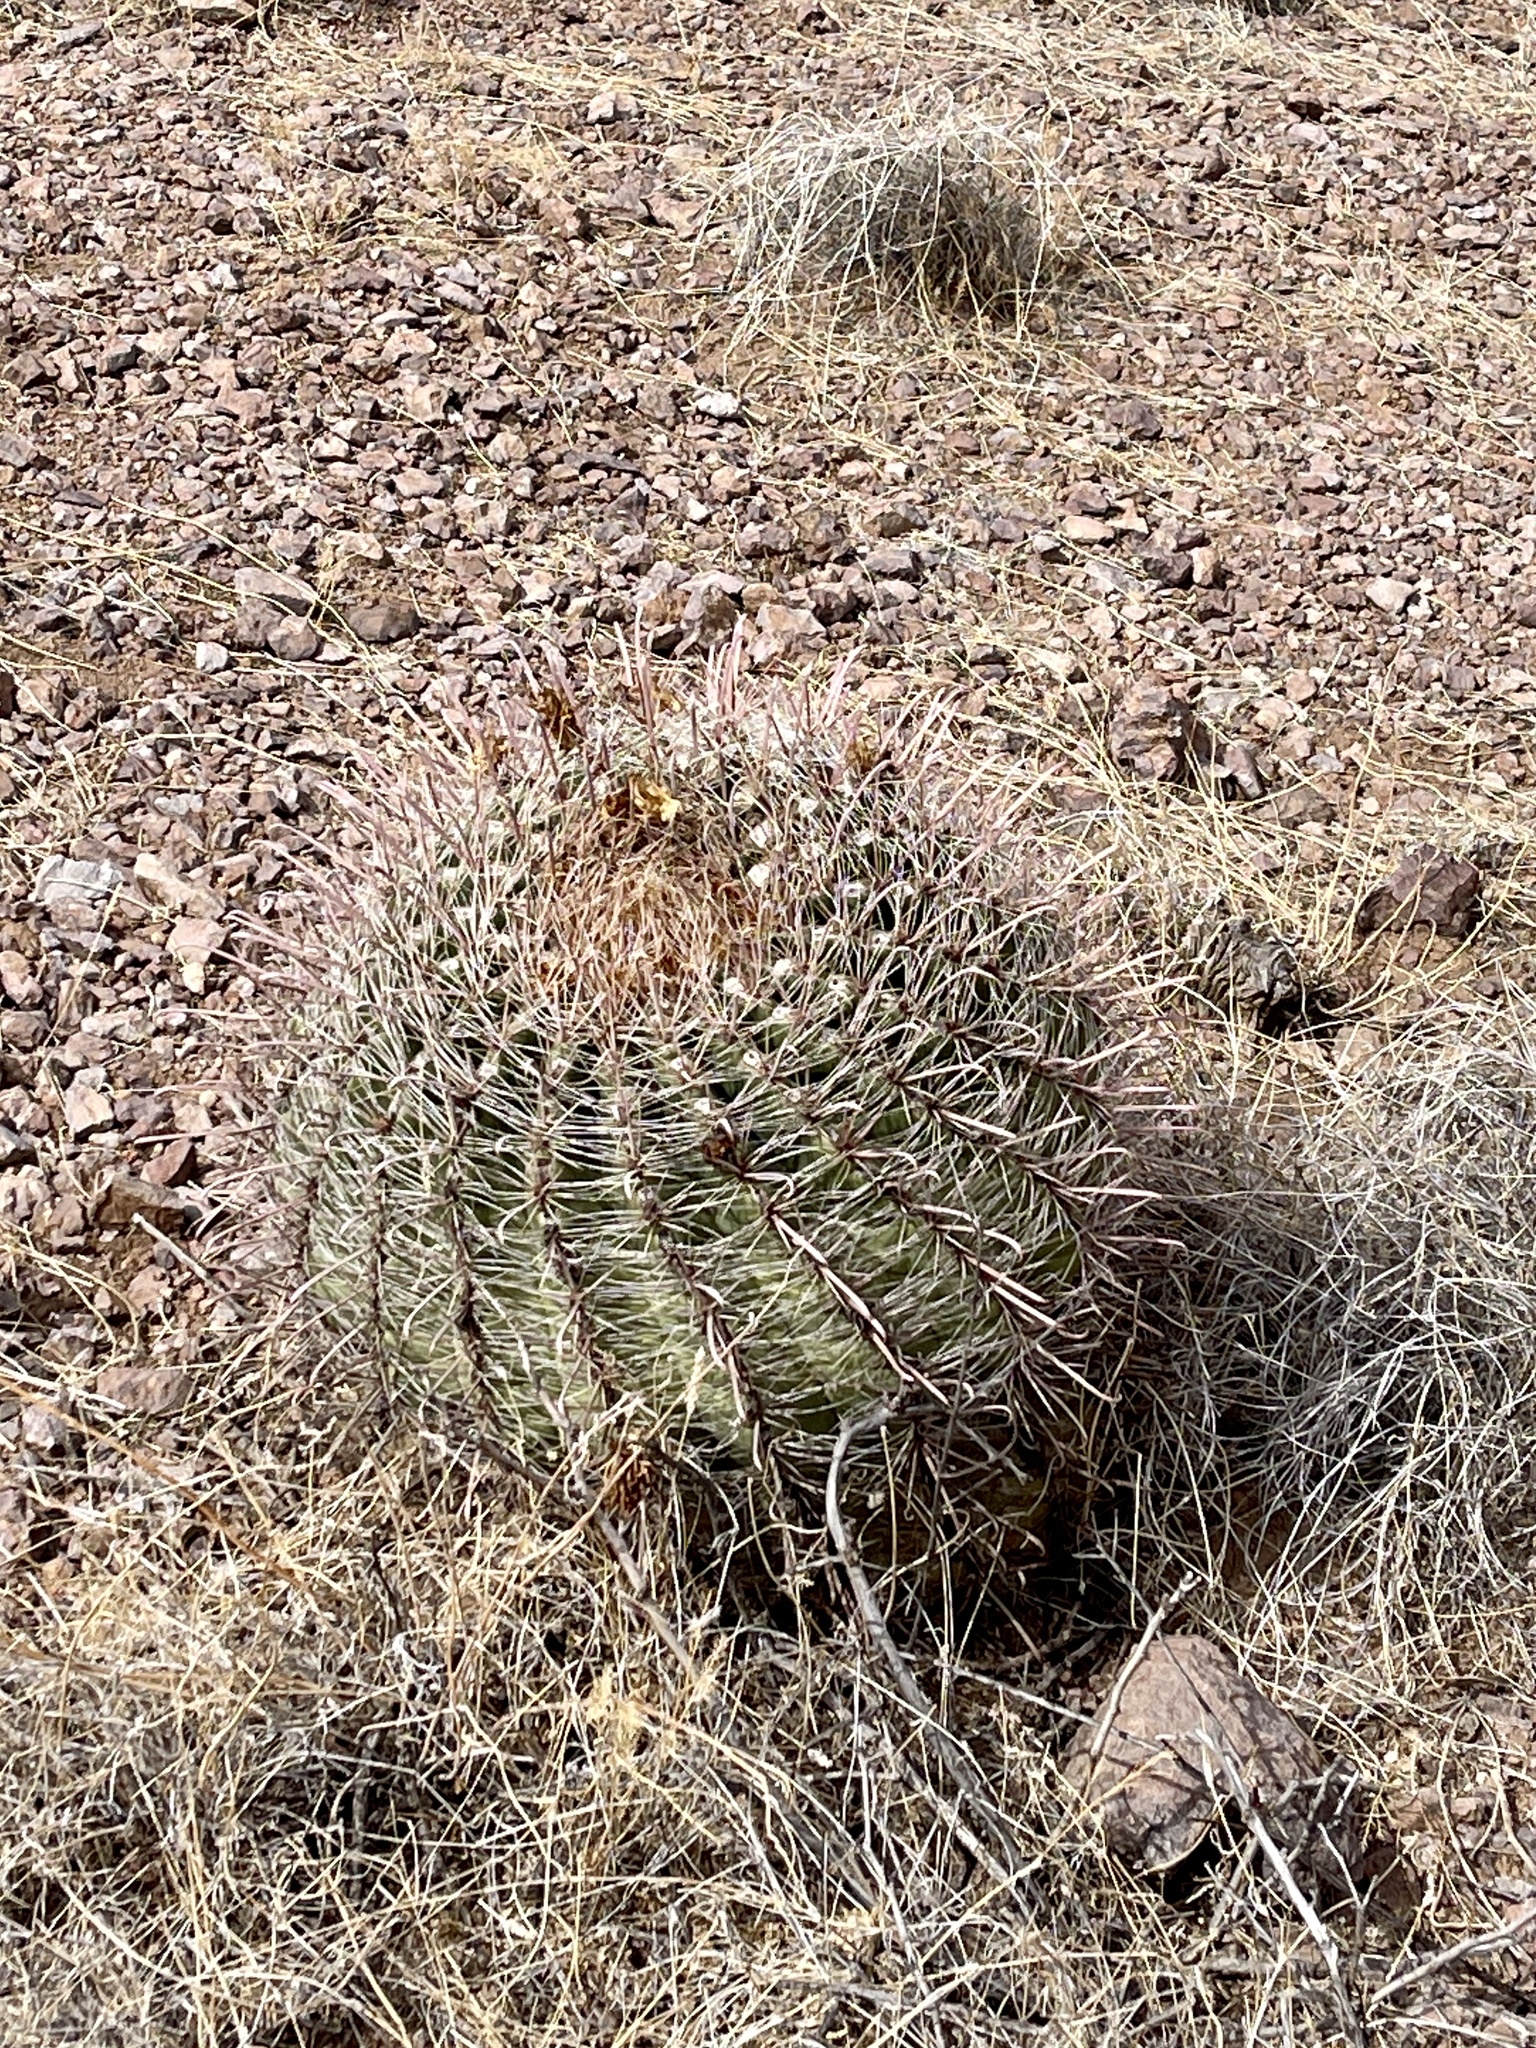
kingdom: Plantae
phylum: Tracheophyta
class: Magnoliopsida
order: Caryophyllales
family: Cactaceae
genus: Ferocactus
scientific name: Ferocactus wislizeni
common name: Candy barrel cactus
